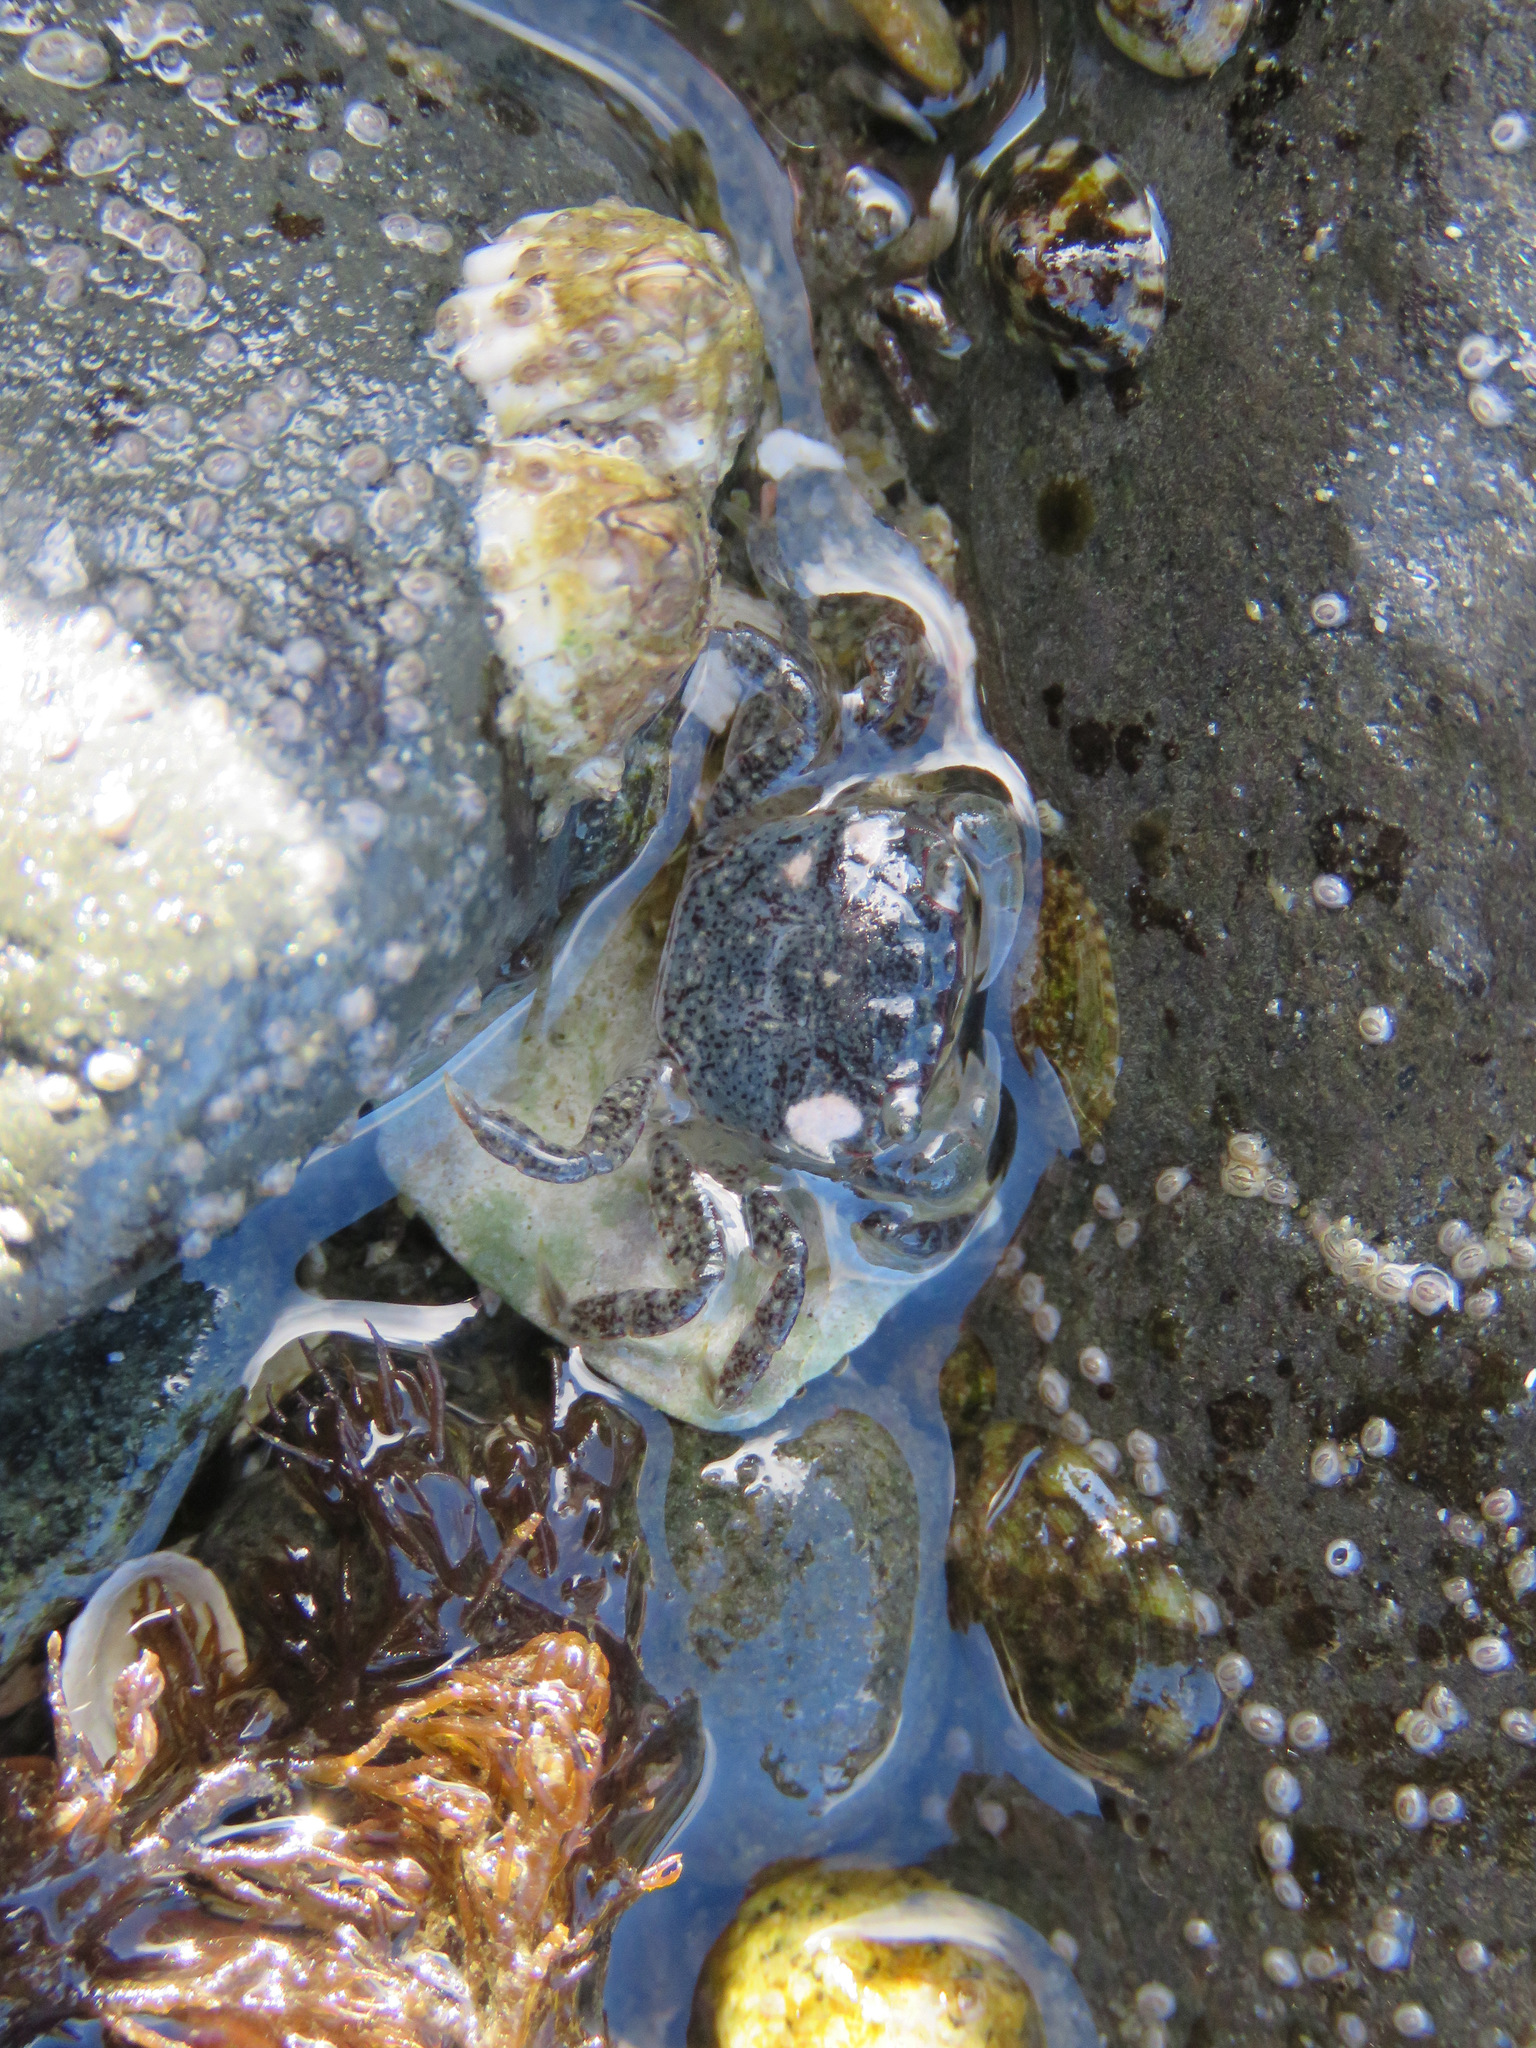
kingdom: Animalia
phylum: Arthropoda
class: Malacostraca
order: Decapoda
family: Varunidae
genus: Hemigrapsus
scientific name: Hemigrapsus oregonensis
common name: Yellow shore crab
